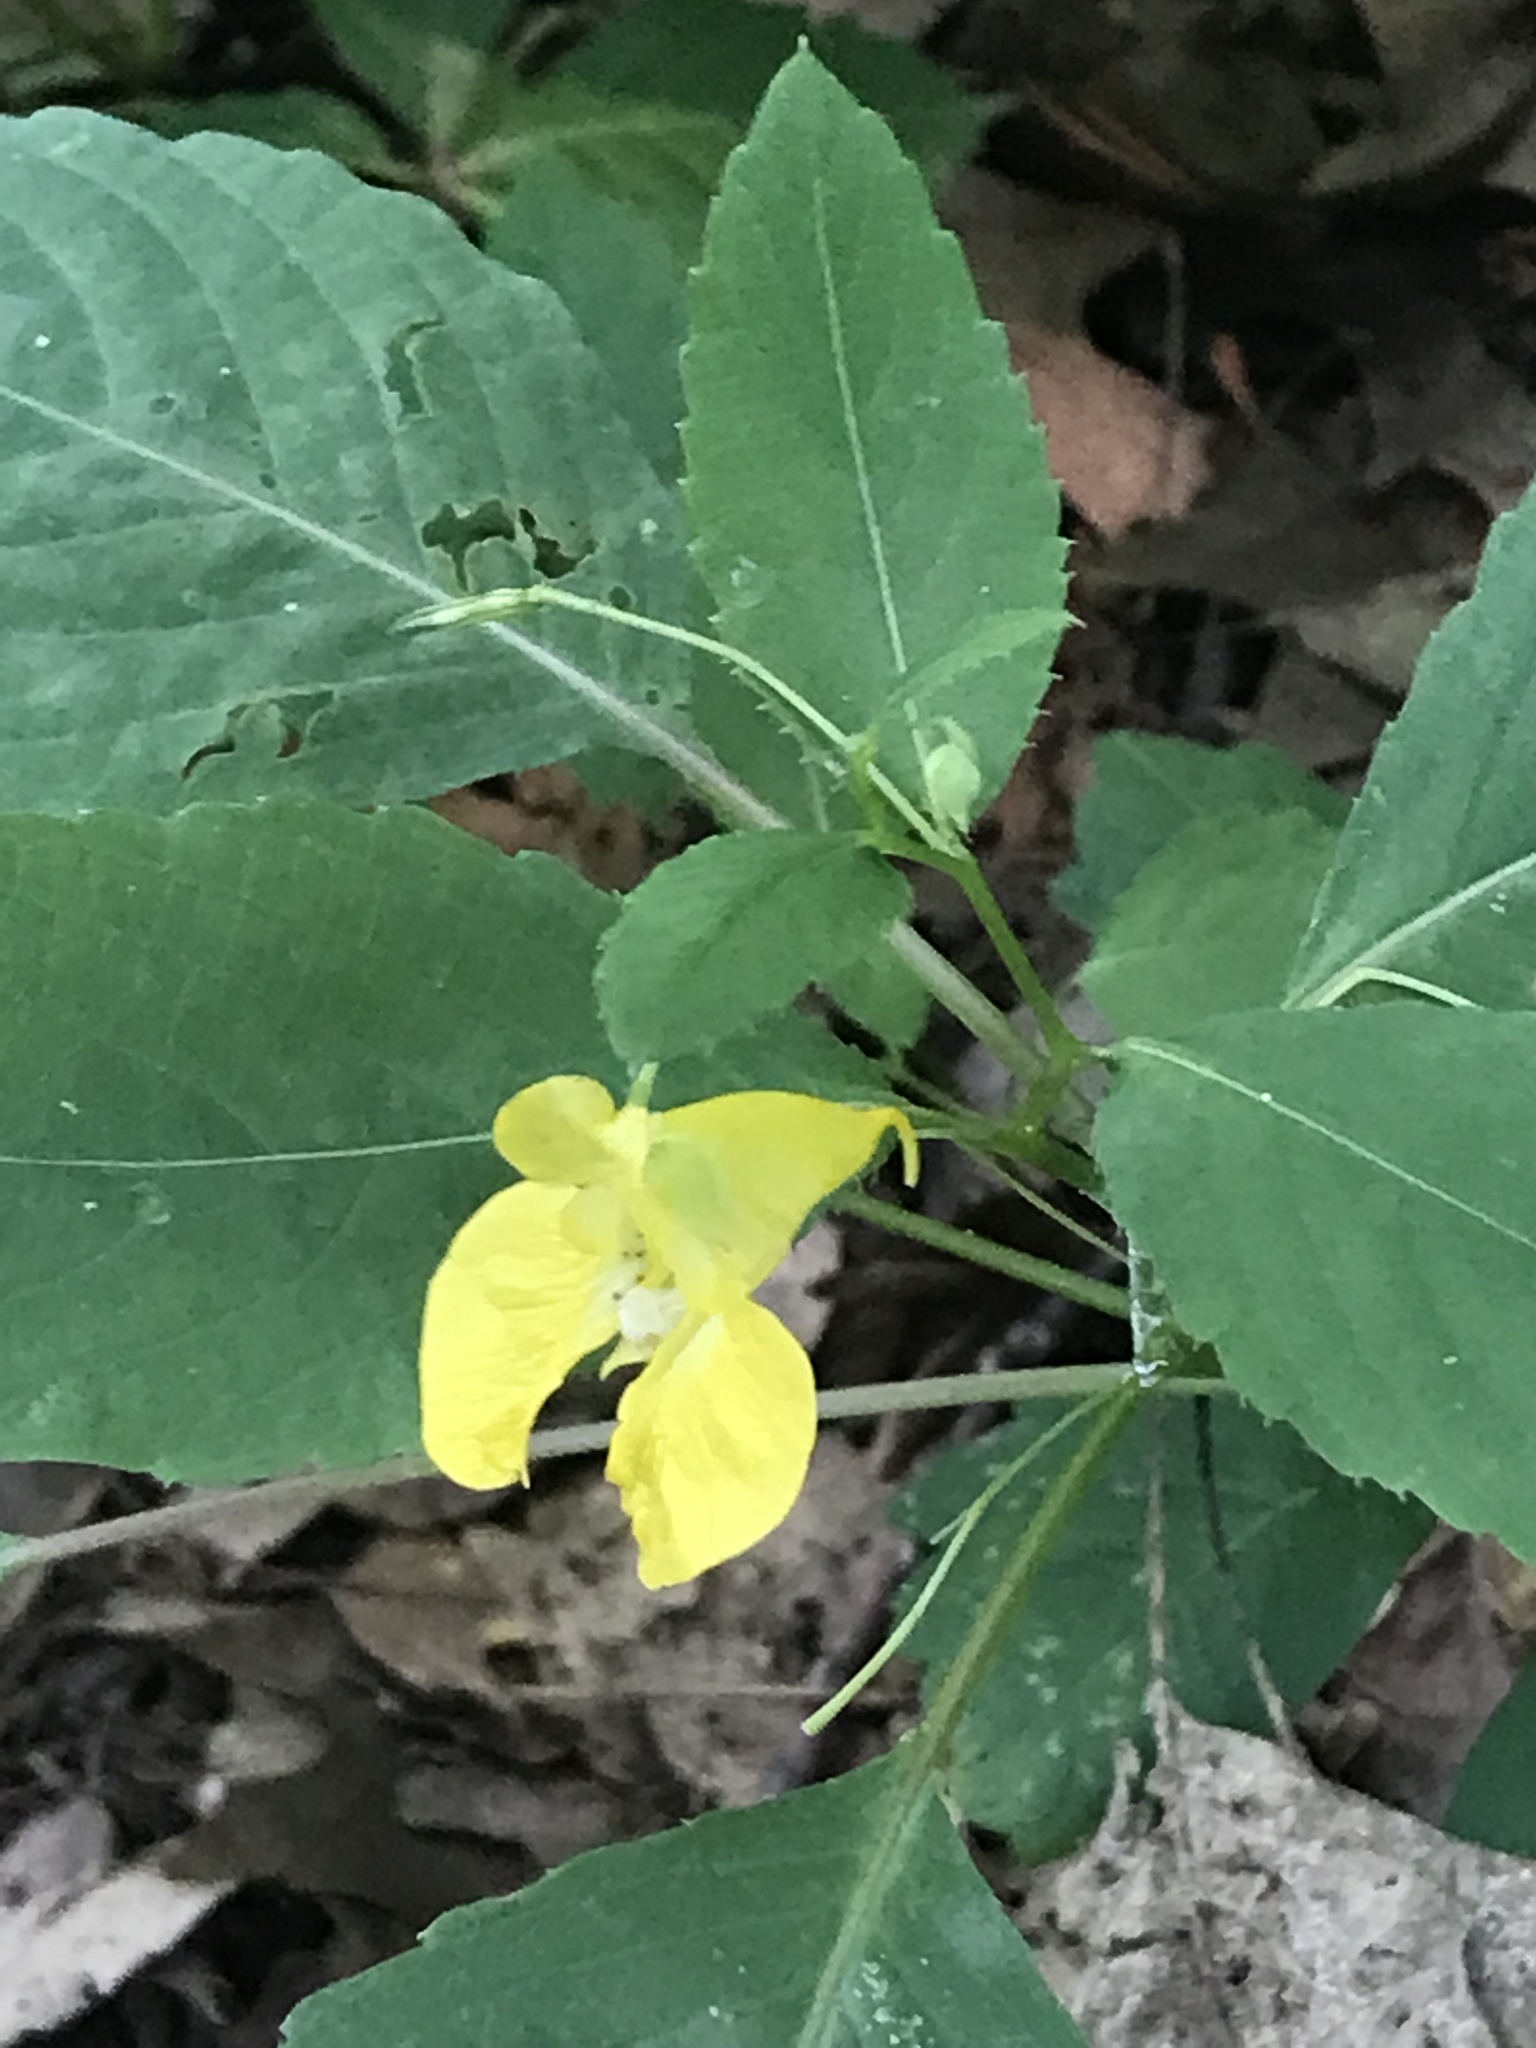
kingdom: Plantae
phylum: Tracheophyta
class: Magnoliopsida
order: Ericales
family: Balsaminaceae
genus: Impatiens
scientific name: Impatiens pallida
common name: Pale snapweed
